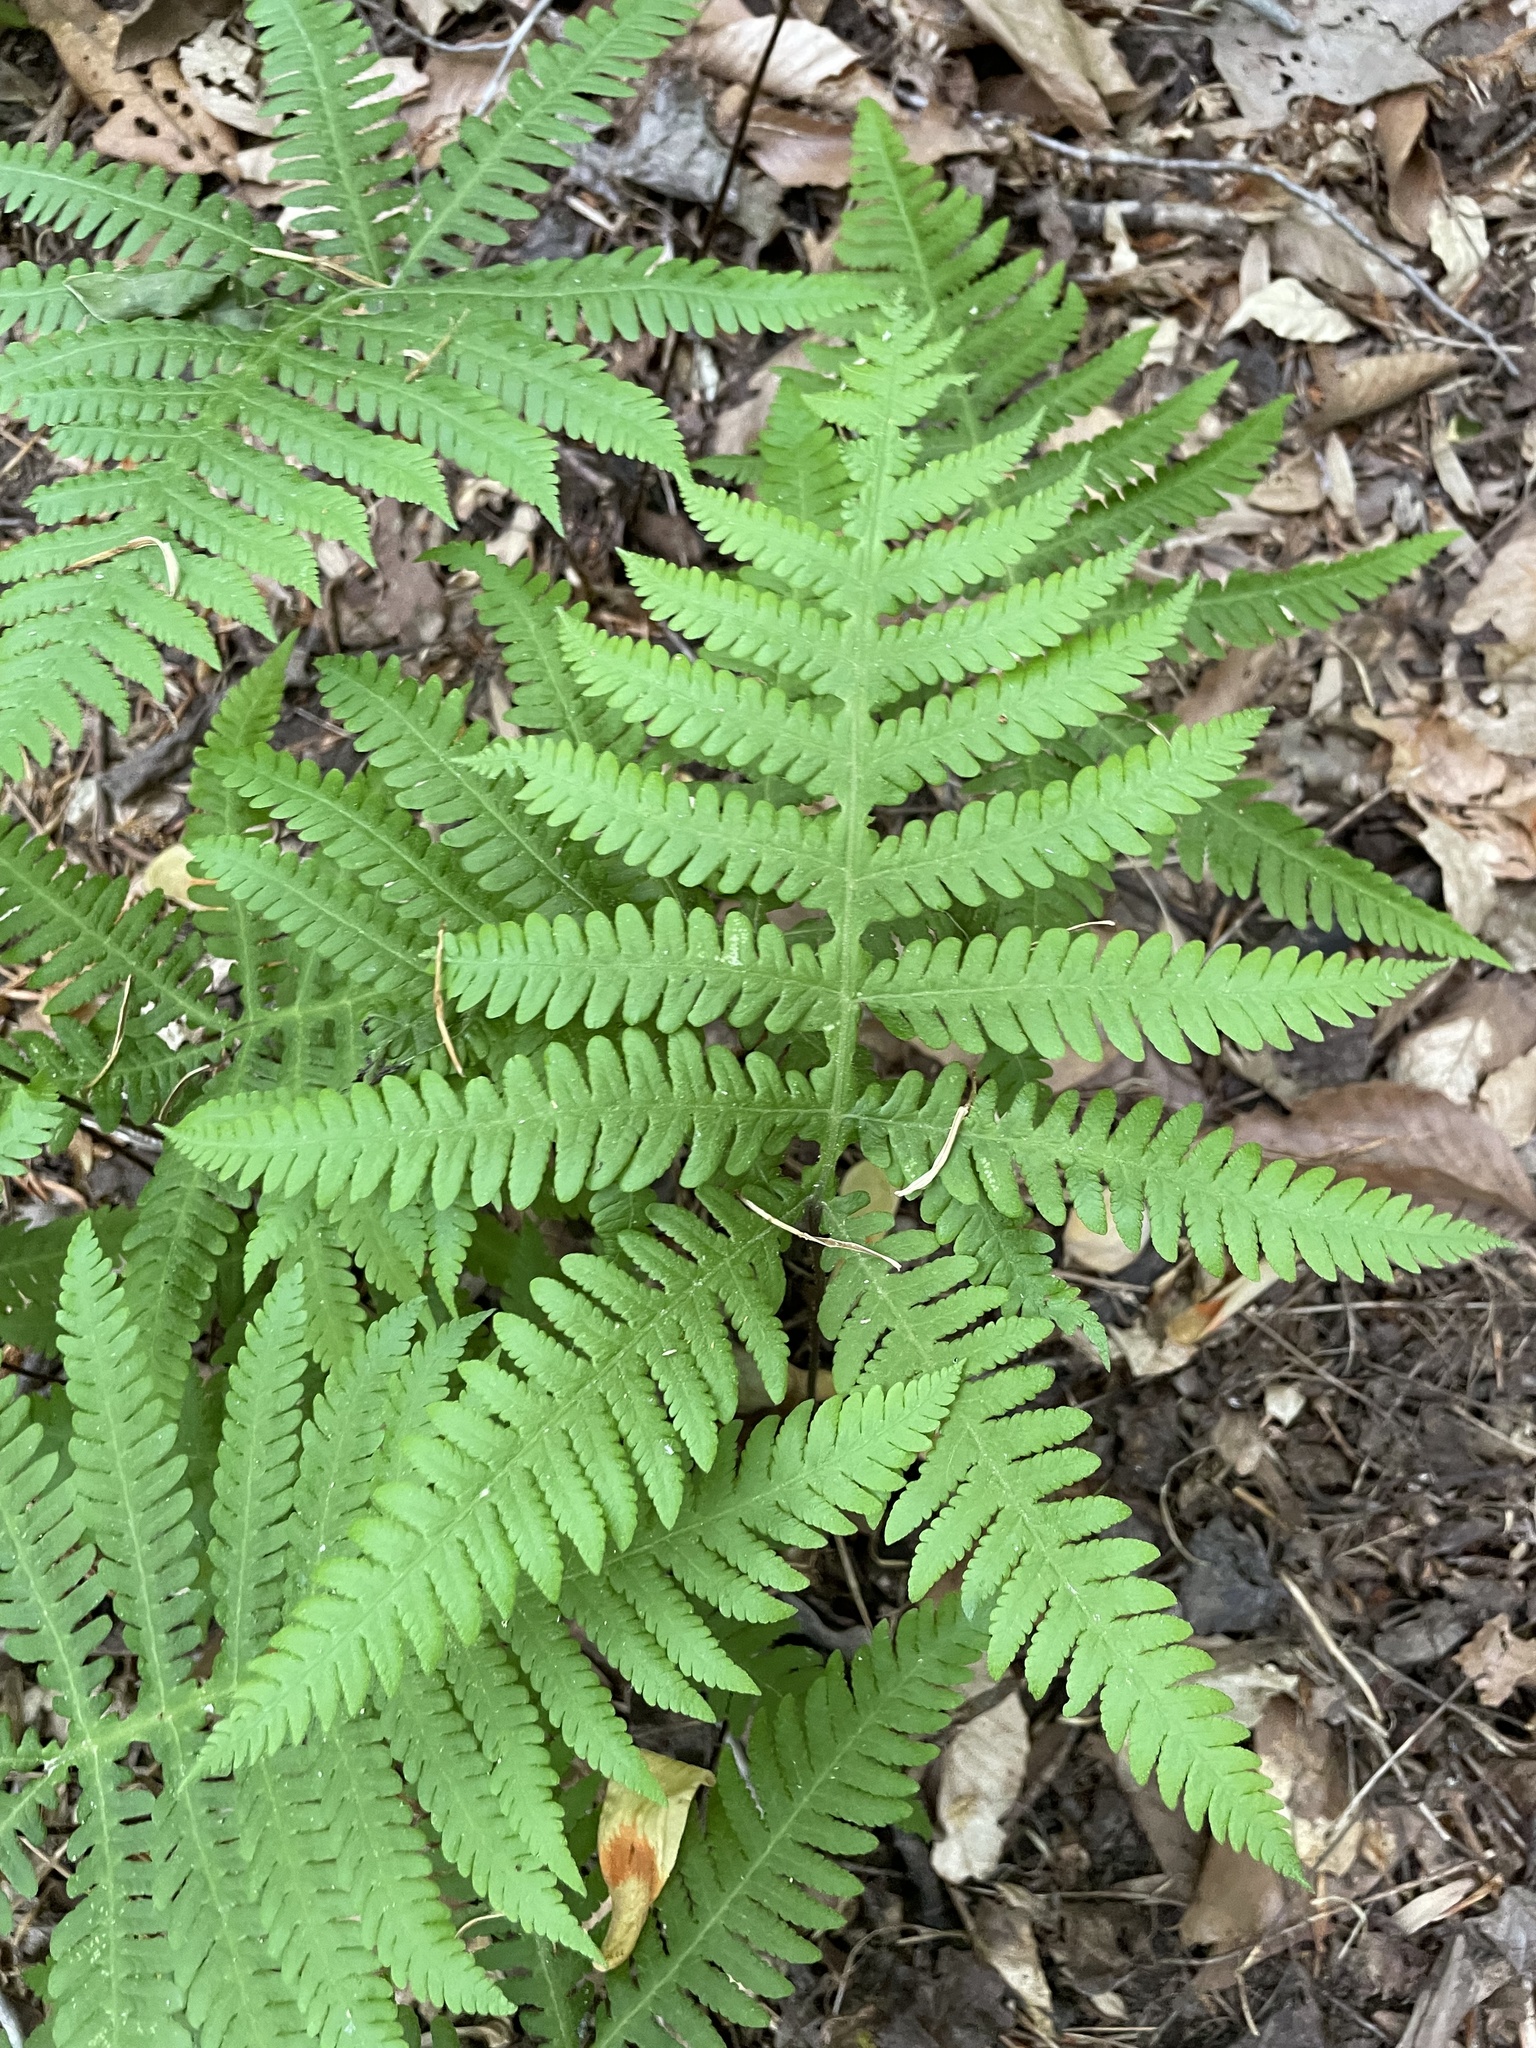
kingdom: Plantae
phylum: Tracheophyta
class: Polypodiopsida
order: Polypodiales
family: Thelypteridaceae
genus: Phegopteris
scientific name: Phegopteris hexagonoptera
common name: Broad beech fern
